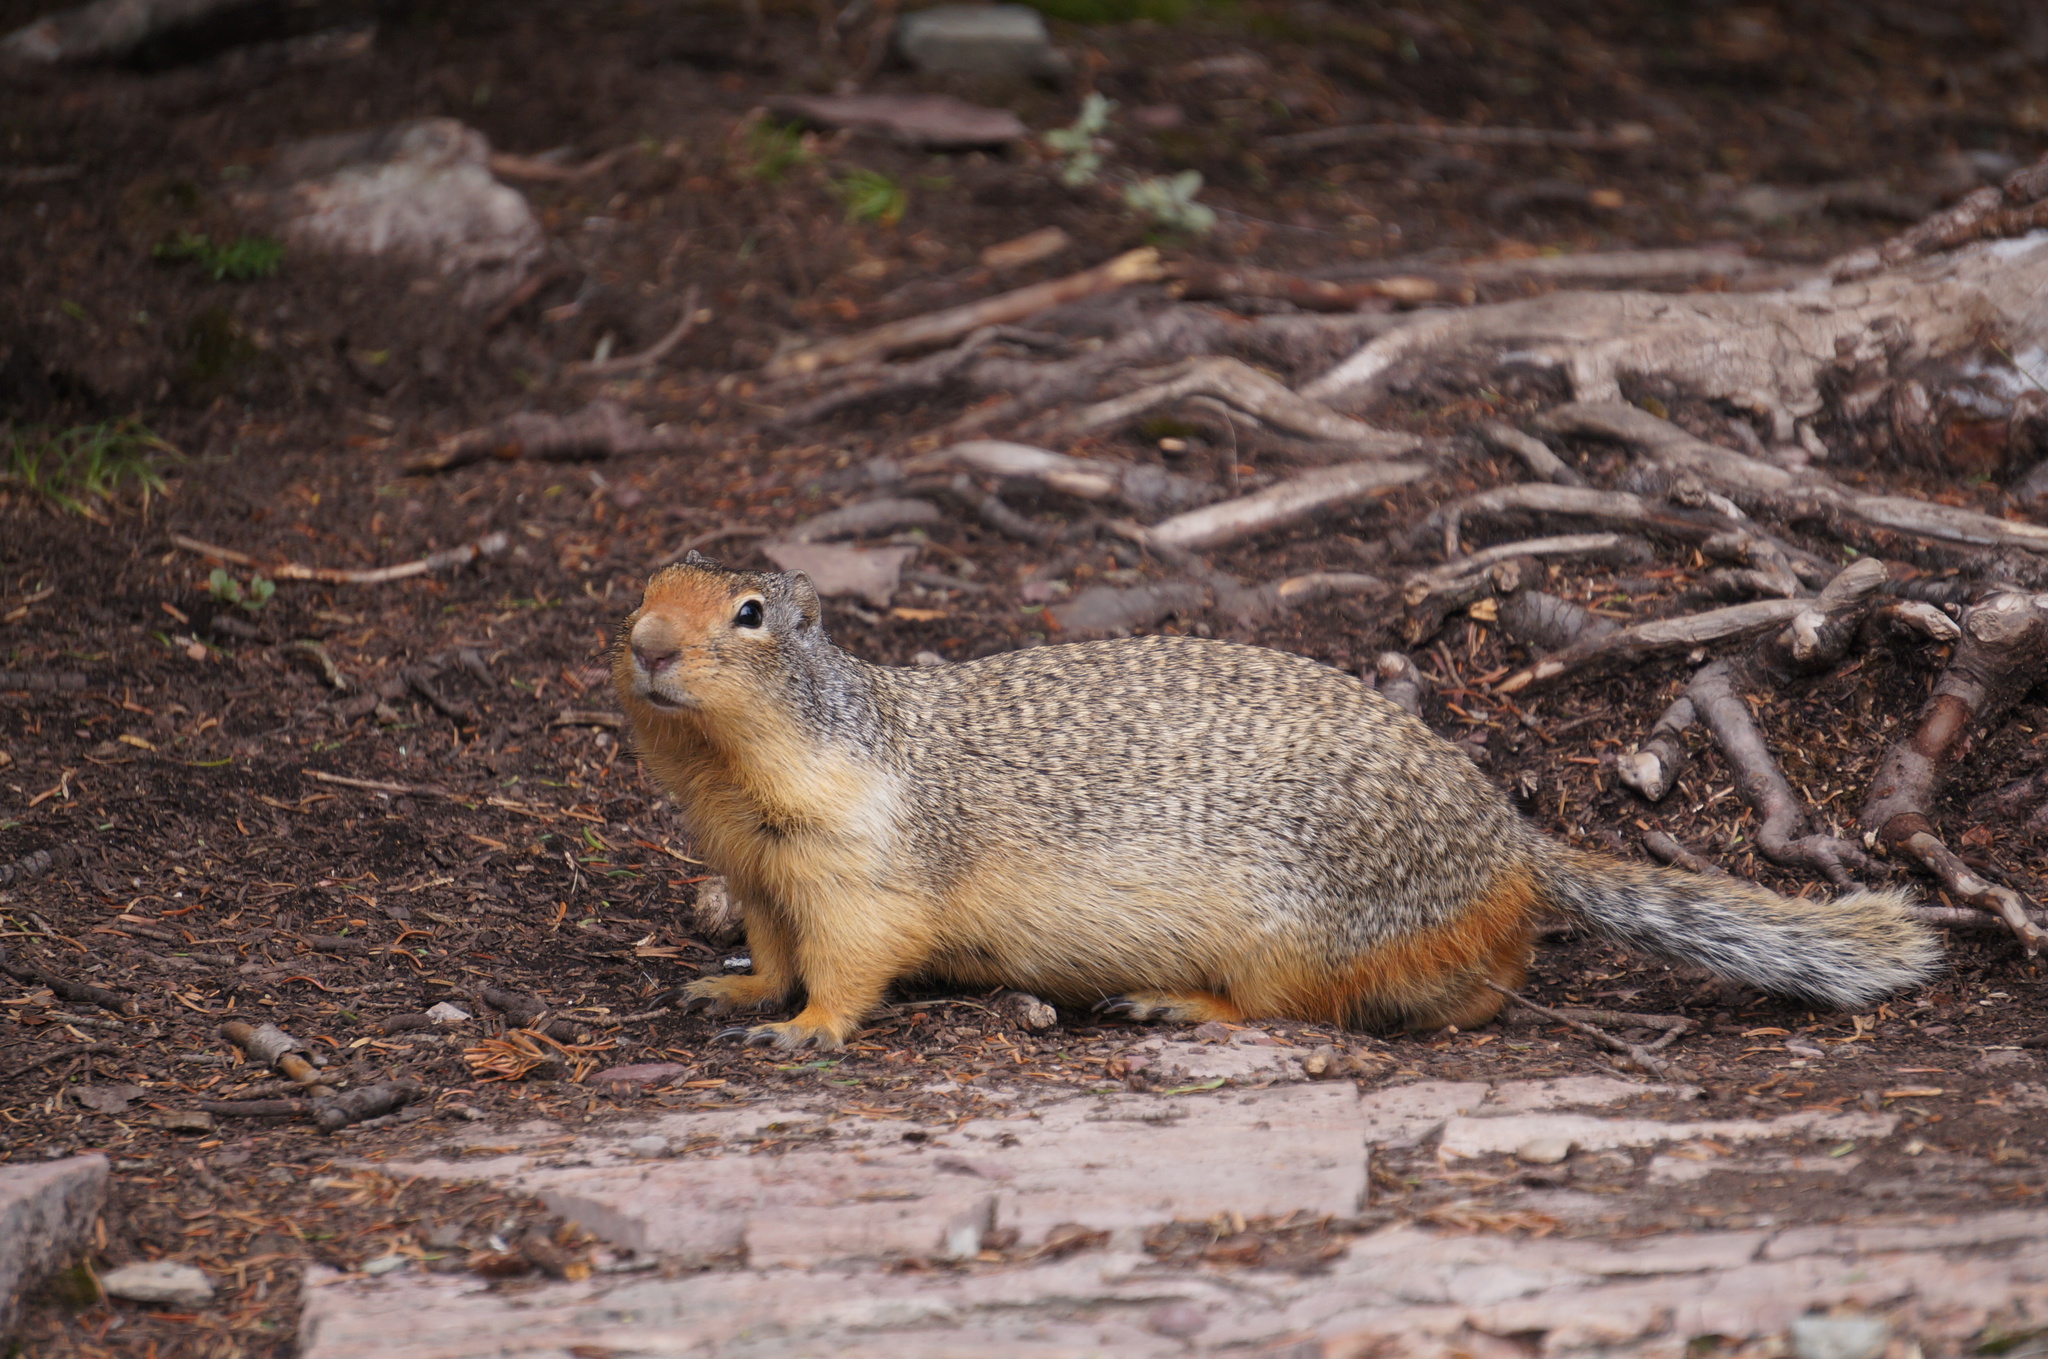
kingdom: Animalia
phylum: Chordata
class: Mammalia
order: Rodentia
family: Sciuridae
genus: Urocitellus
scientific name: Urocitellus columbianus
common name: Columbian ground squirrel
